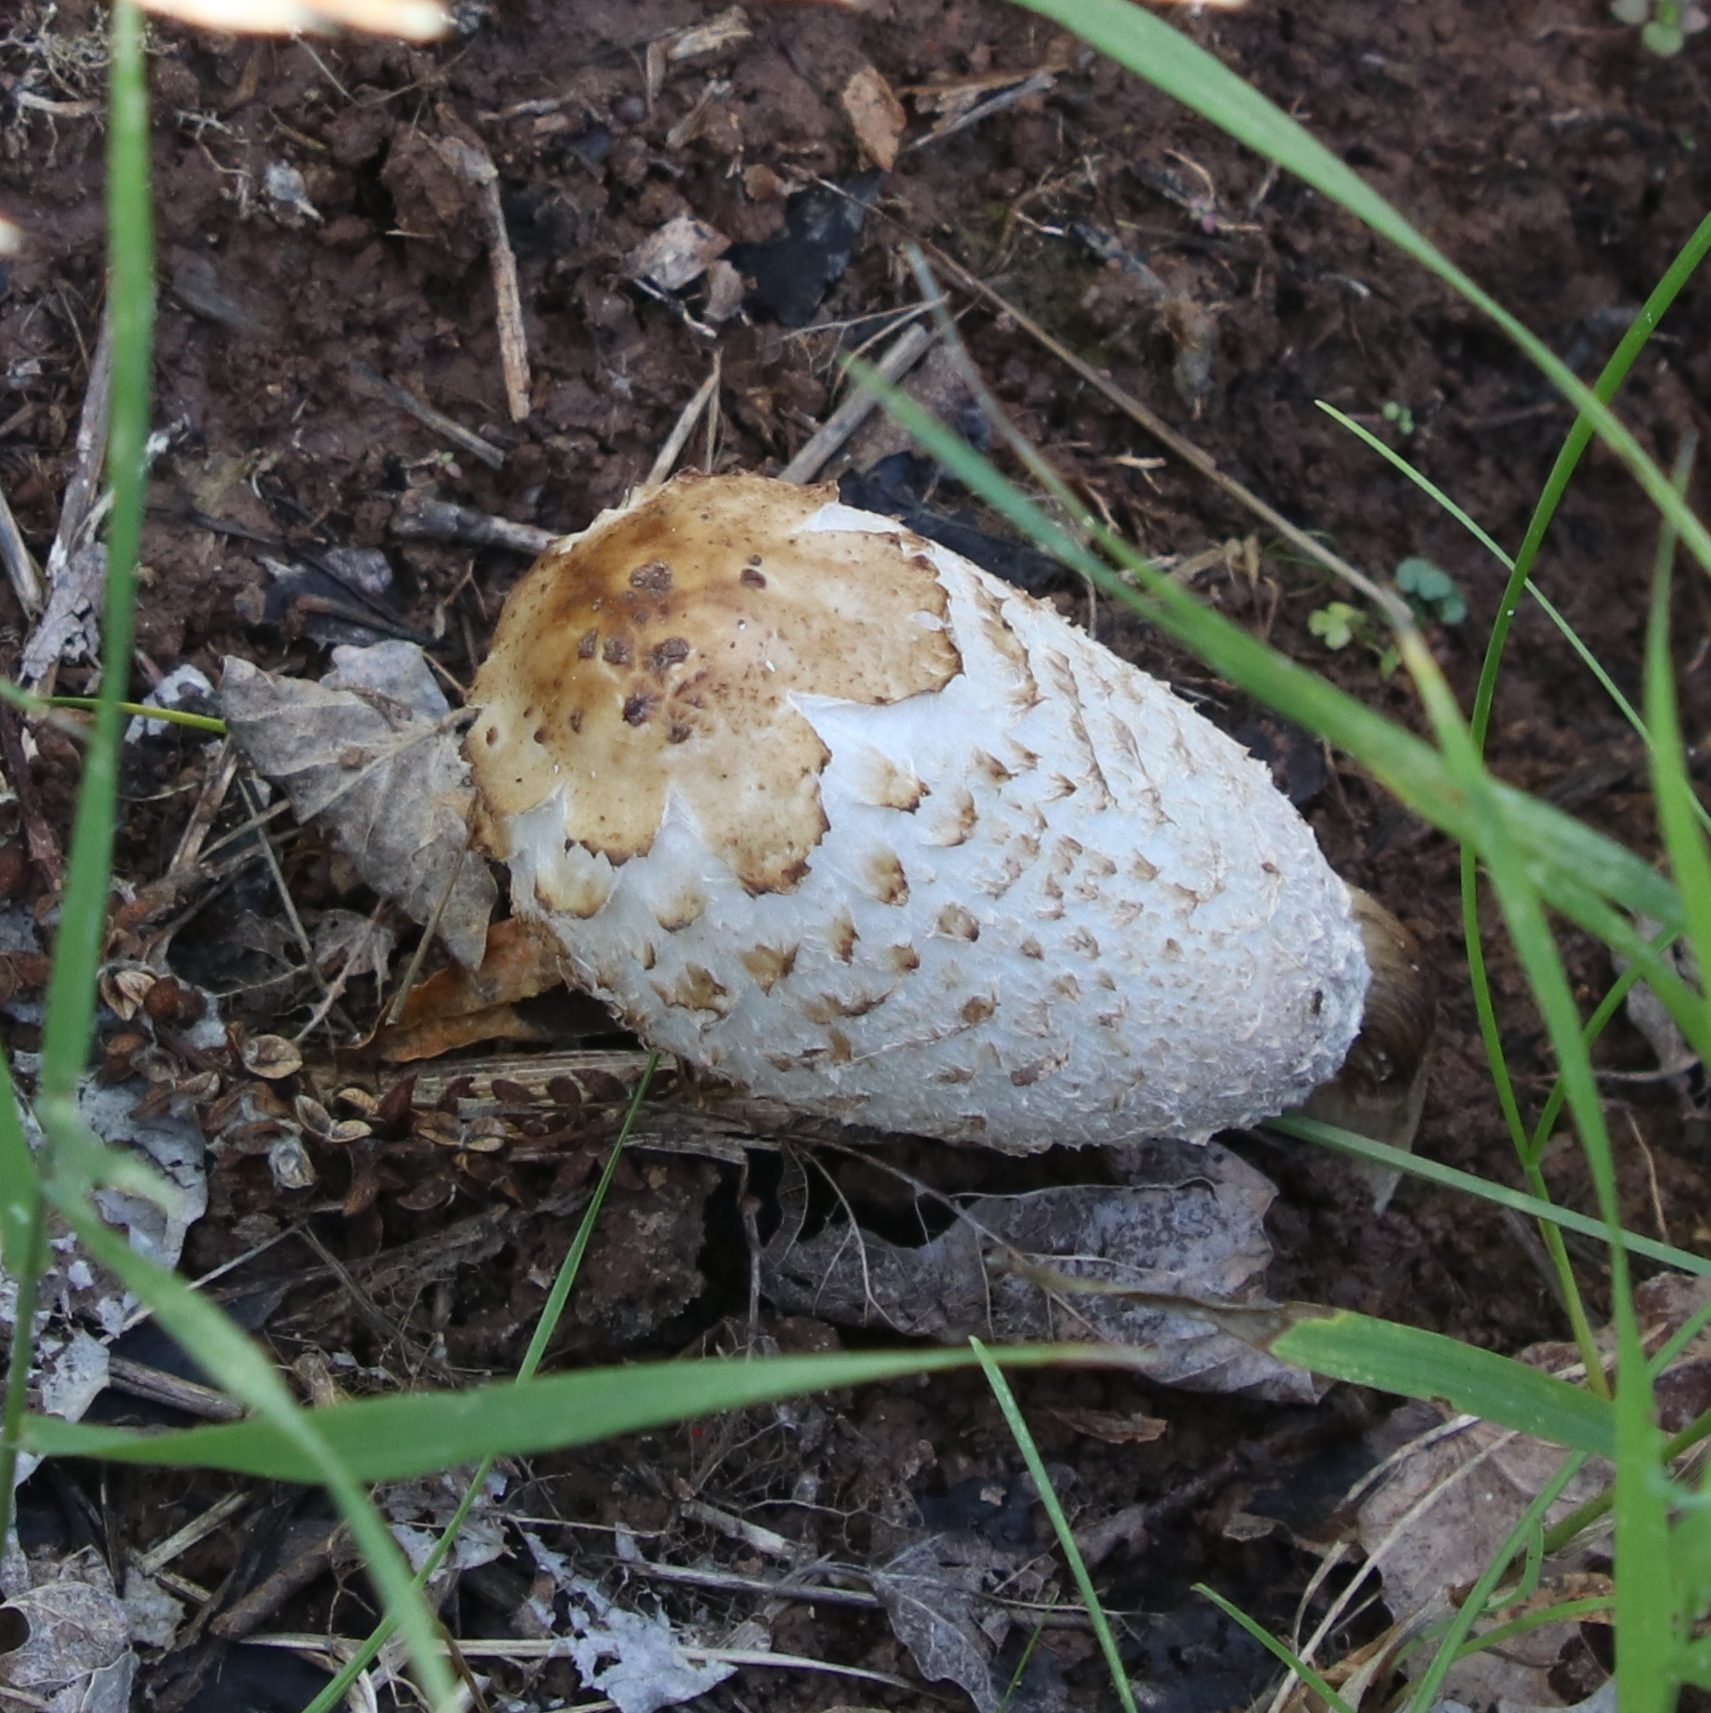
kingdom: Fungi
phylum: Basidiomycota
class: Agaricomycetes
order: Agaricales
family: Agaricaceae
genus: Coprinus
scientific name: Coprinus comatus
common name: Lawyer's wig
